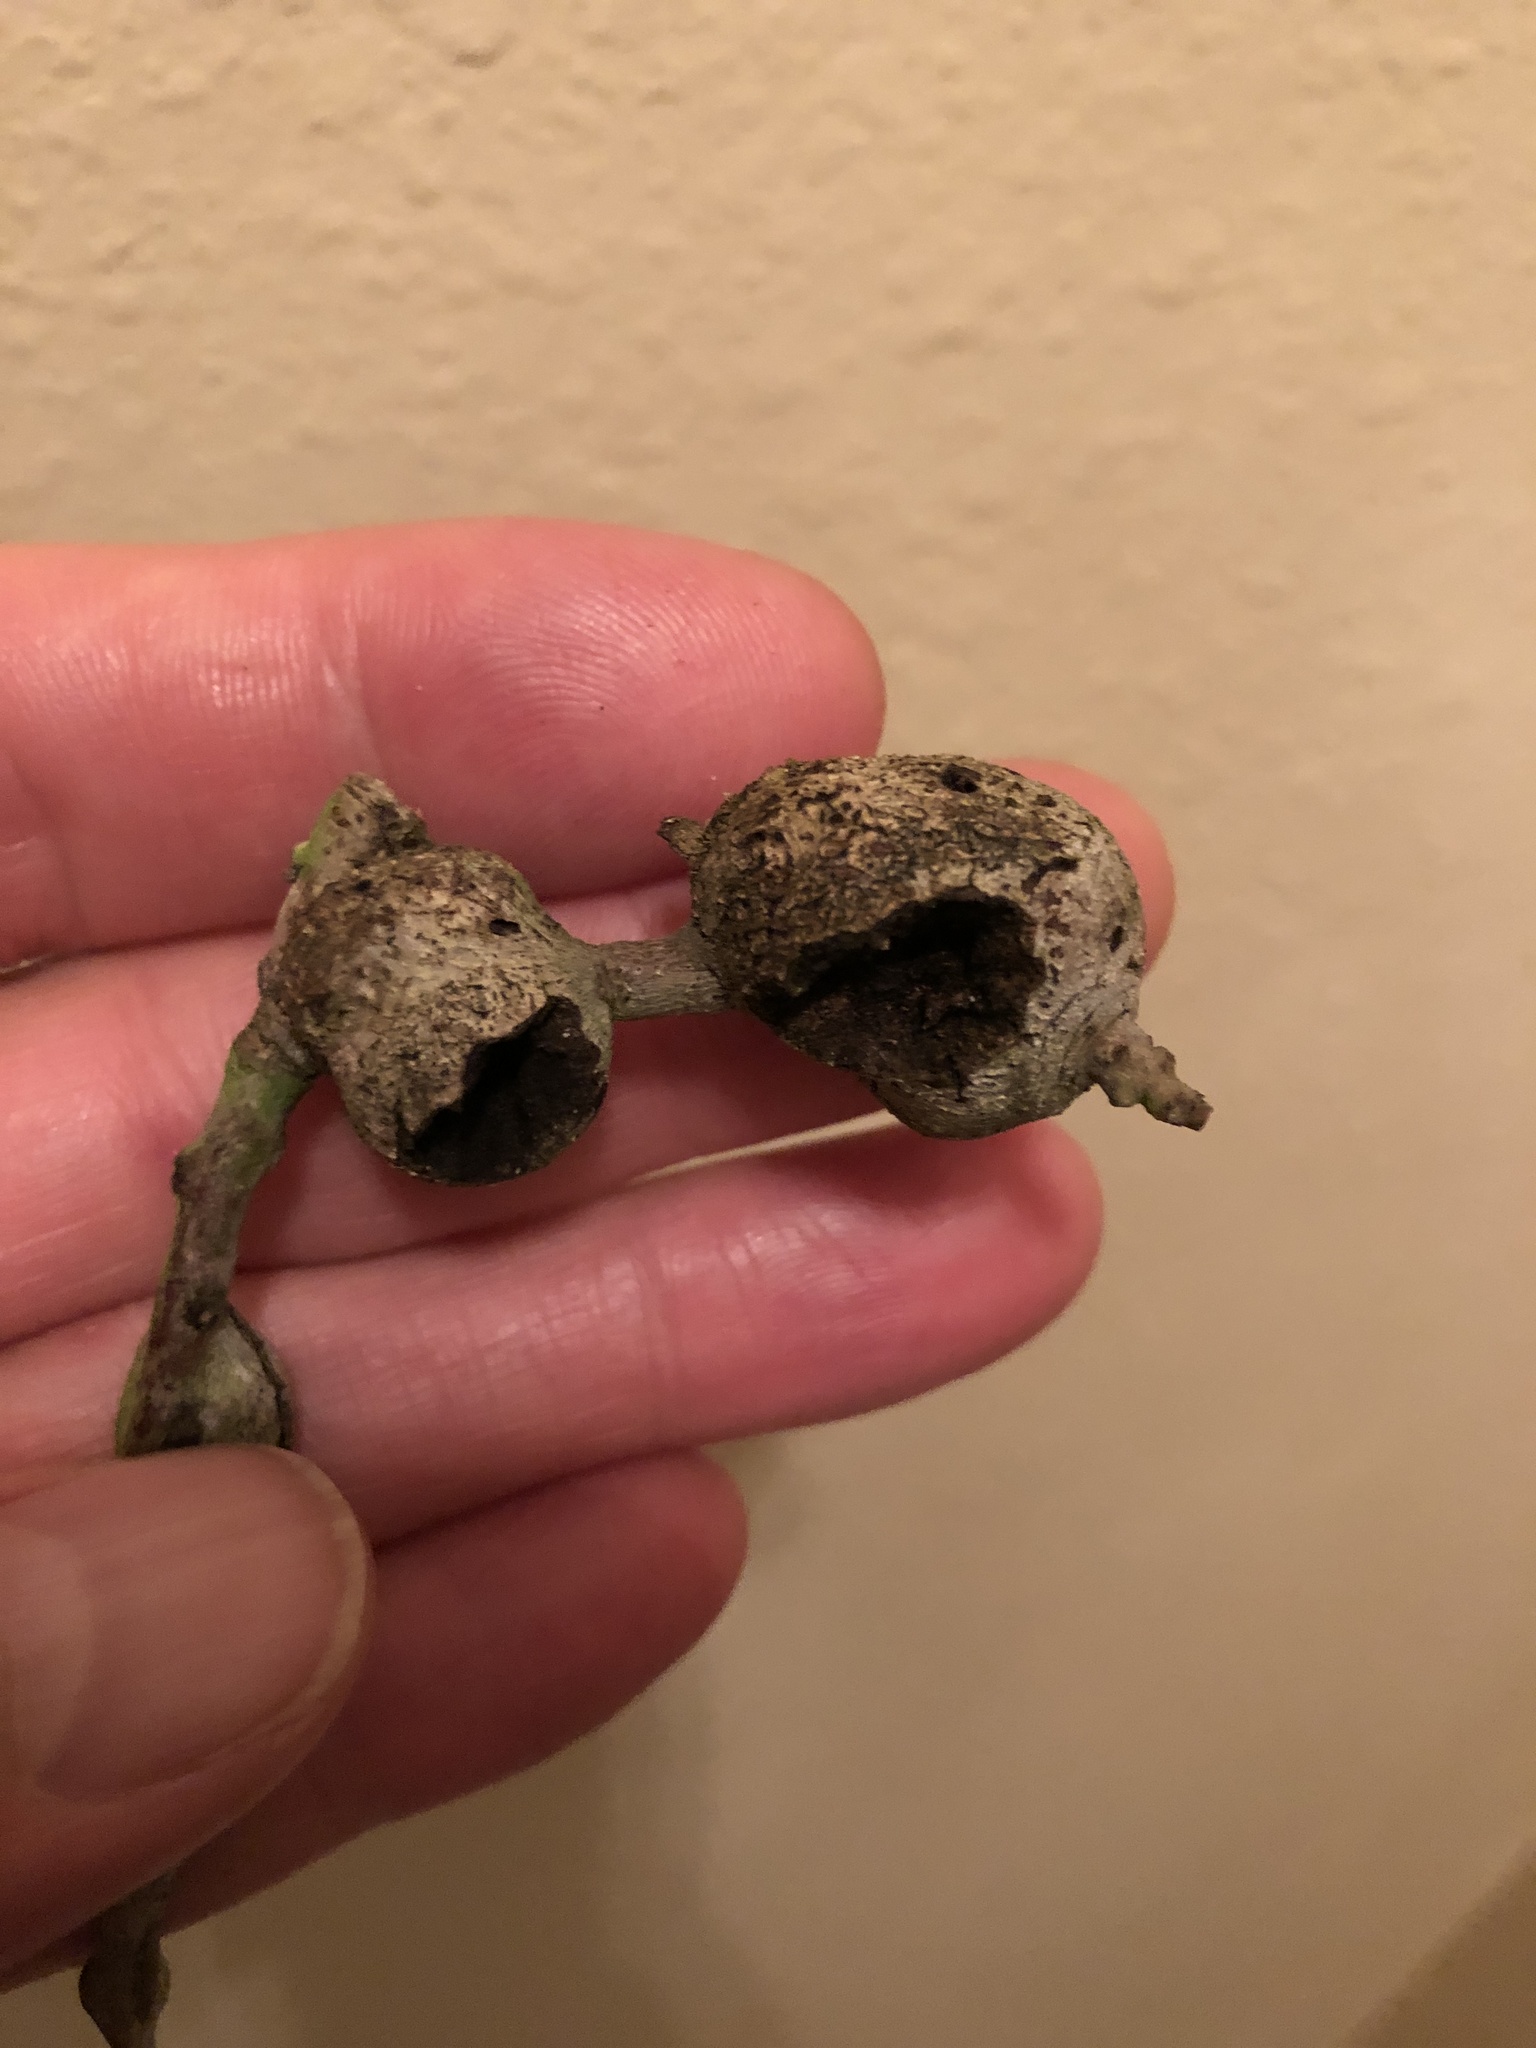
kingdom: Animalia
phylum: Arthropoda
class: Insecta
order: Hymenoptera
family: Cynipidae
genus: Callirhytis
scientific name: Callirhytis
